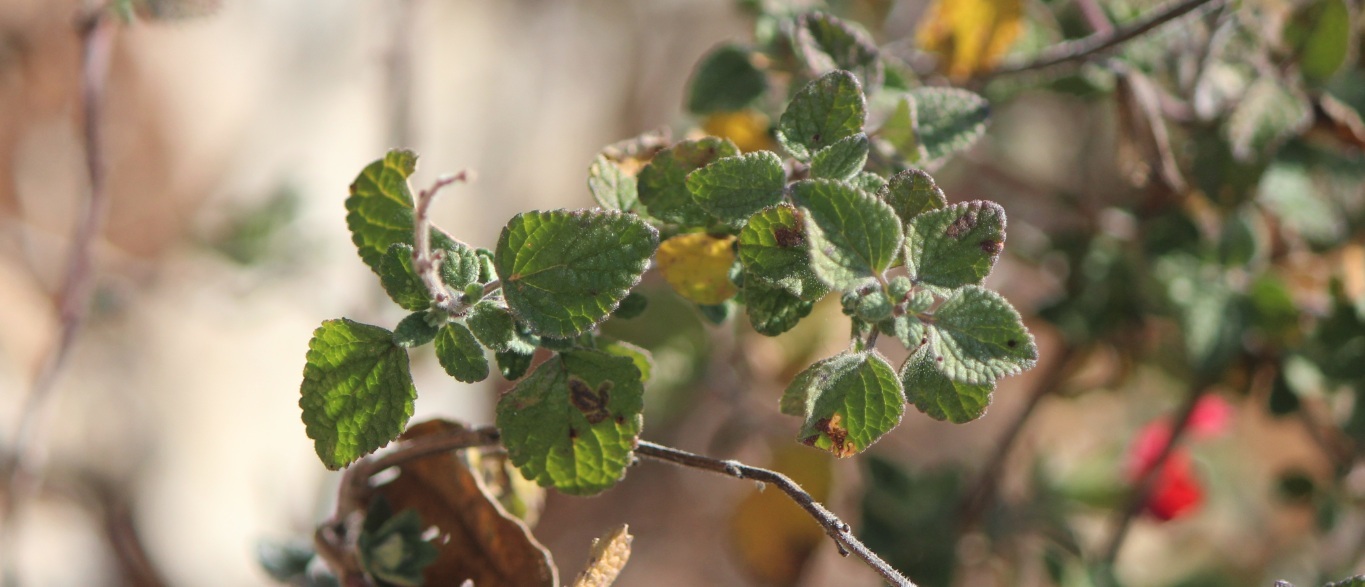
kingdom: Plantae
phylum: Tracheophyta
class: Magnoliopsida
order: Lamiales
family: Lamiaceae
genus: Salvia
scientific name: Salvia microphylla
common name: Baby sage
